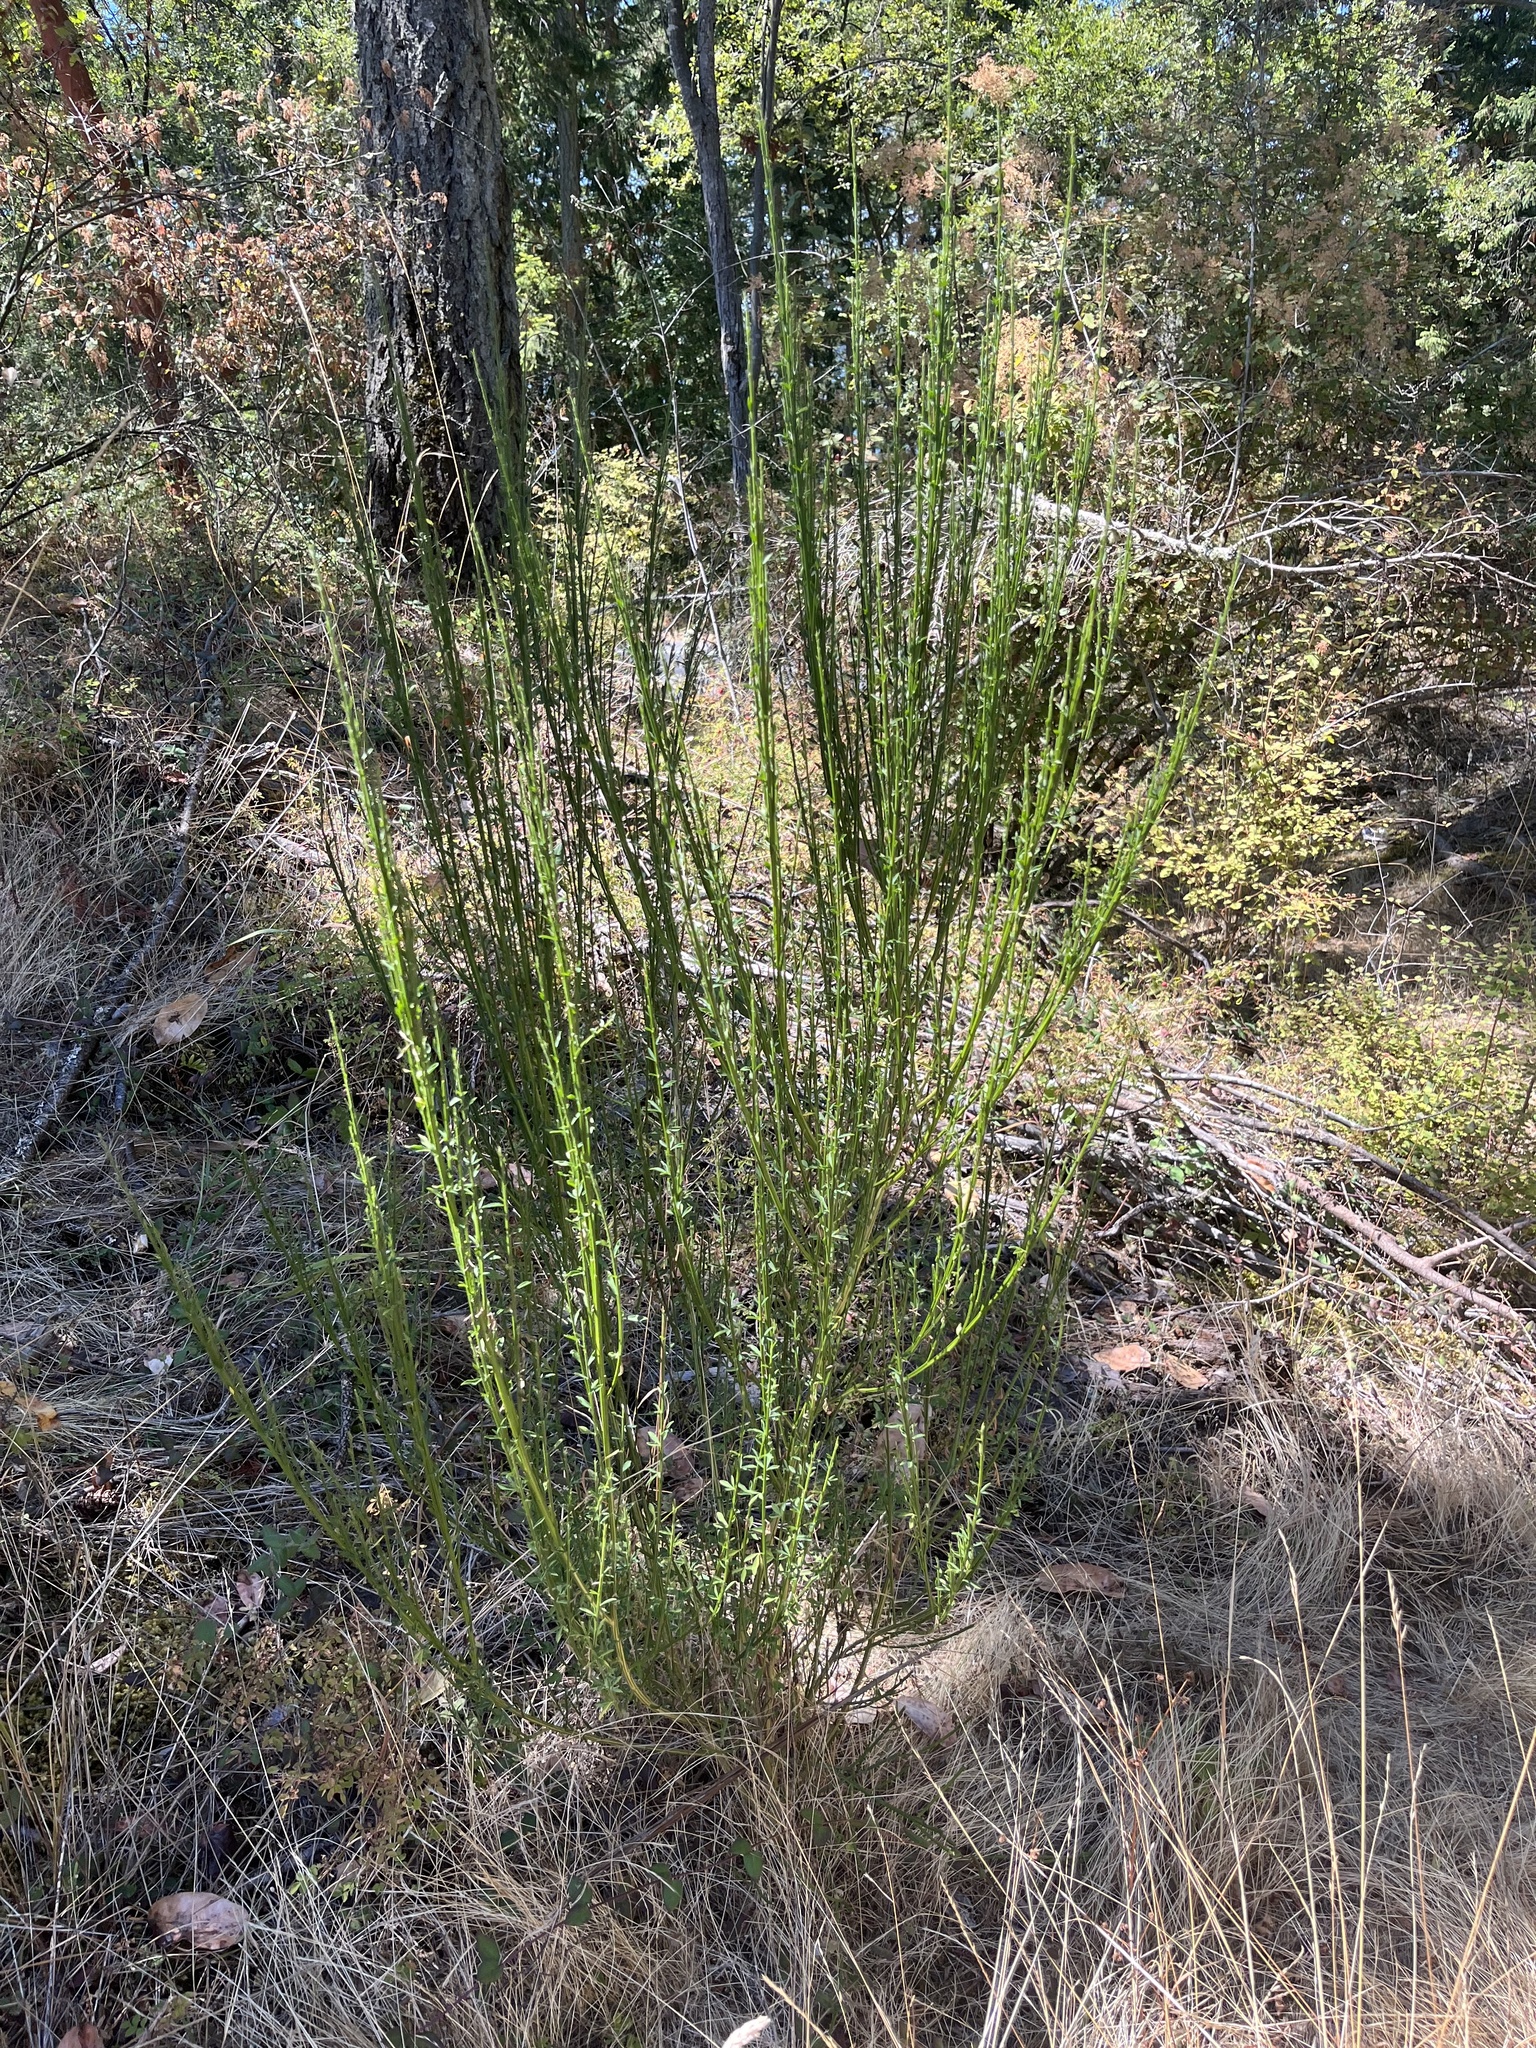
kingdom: Plantae
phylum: Tracheophyta
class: Magnoliopsida
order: Fabales
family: Fabaceae
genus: Cytisus
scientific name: Cytisus scoparius
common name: Scotch broom
